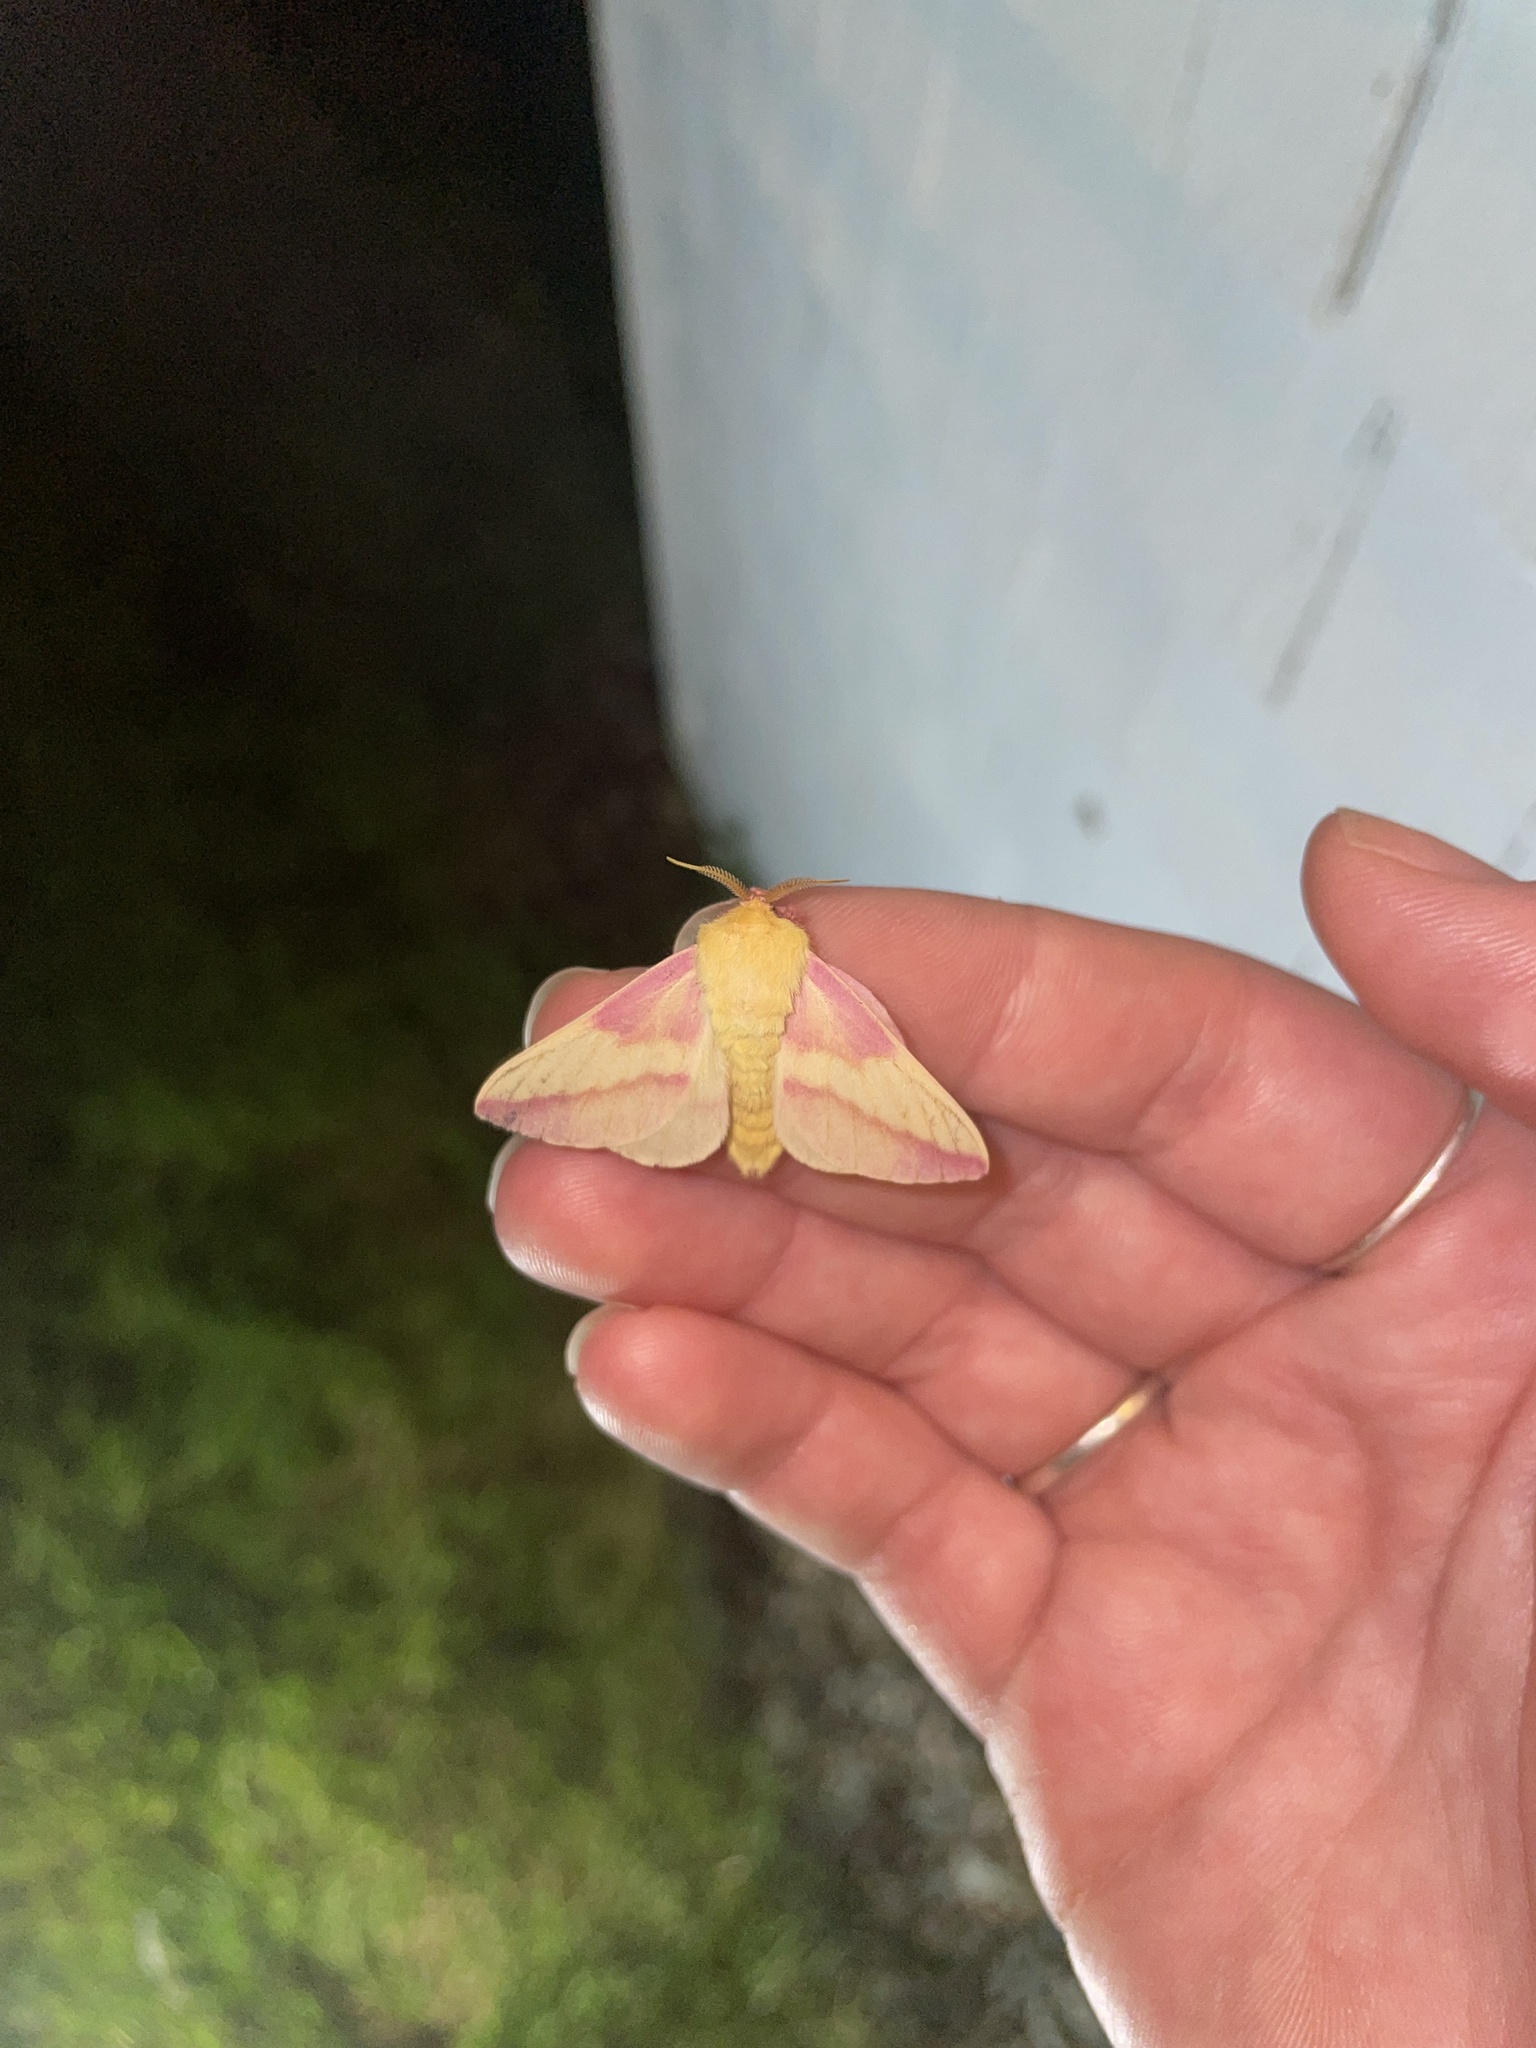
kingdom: Animalia
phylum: Arthropoda
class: Insecta
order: Lepidoptera
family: Saturniidae
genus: Dryocampa
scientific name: Dryocampa rubicunda
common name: Rosy maple moth
